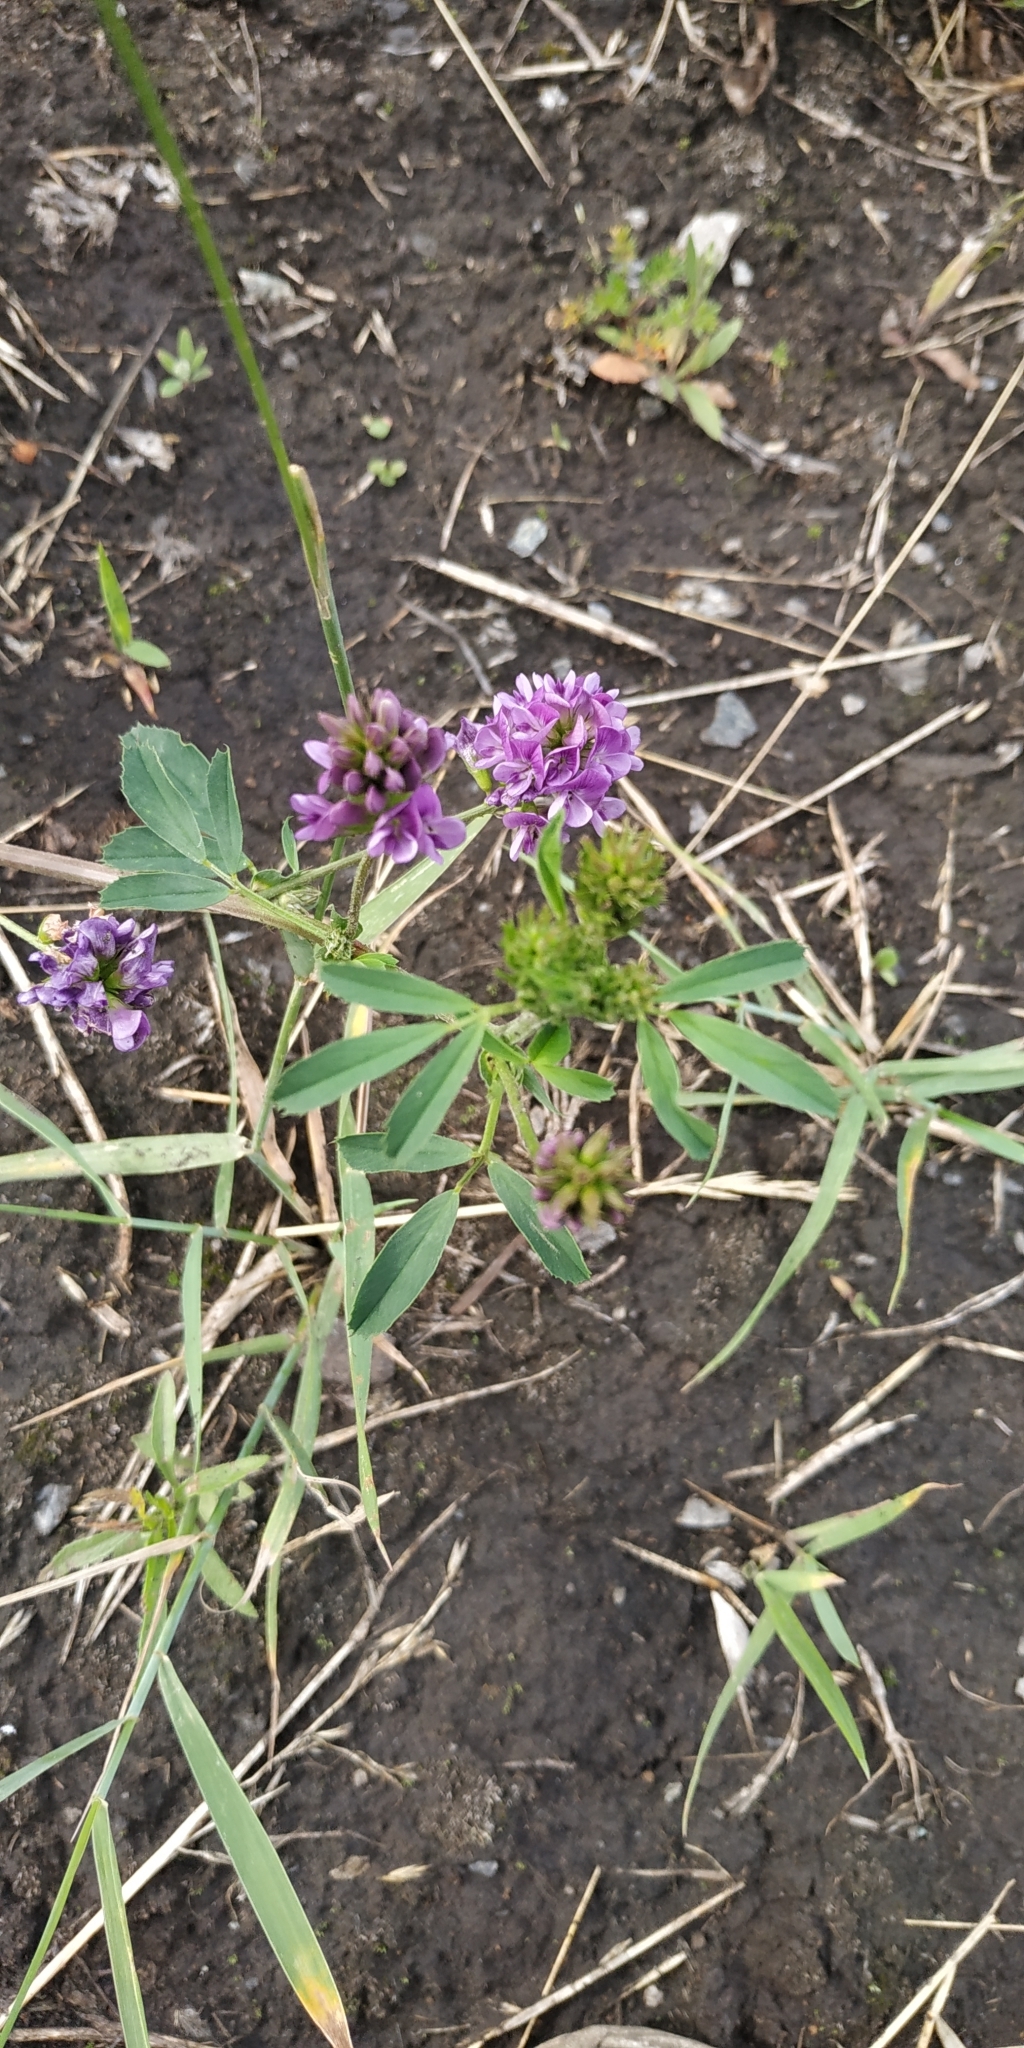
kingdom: Plantae
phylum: Tracheophyta
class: Magnoliopsida
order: Fabales
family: Fabaceae
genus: Medicago
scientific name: Medicago sativa
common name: Alfalfa
